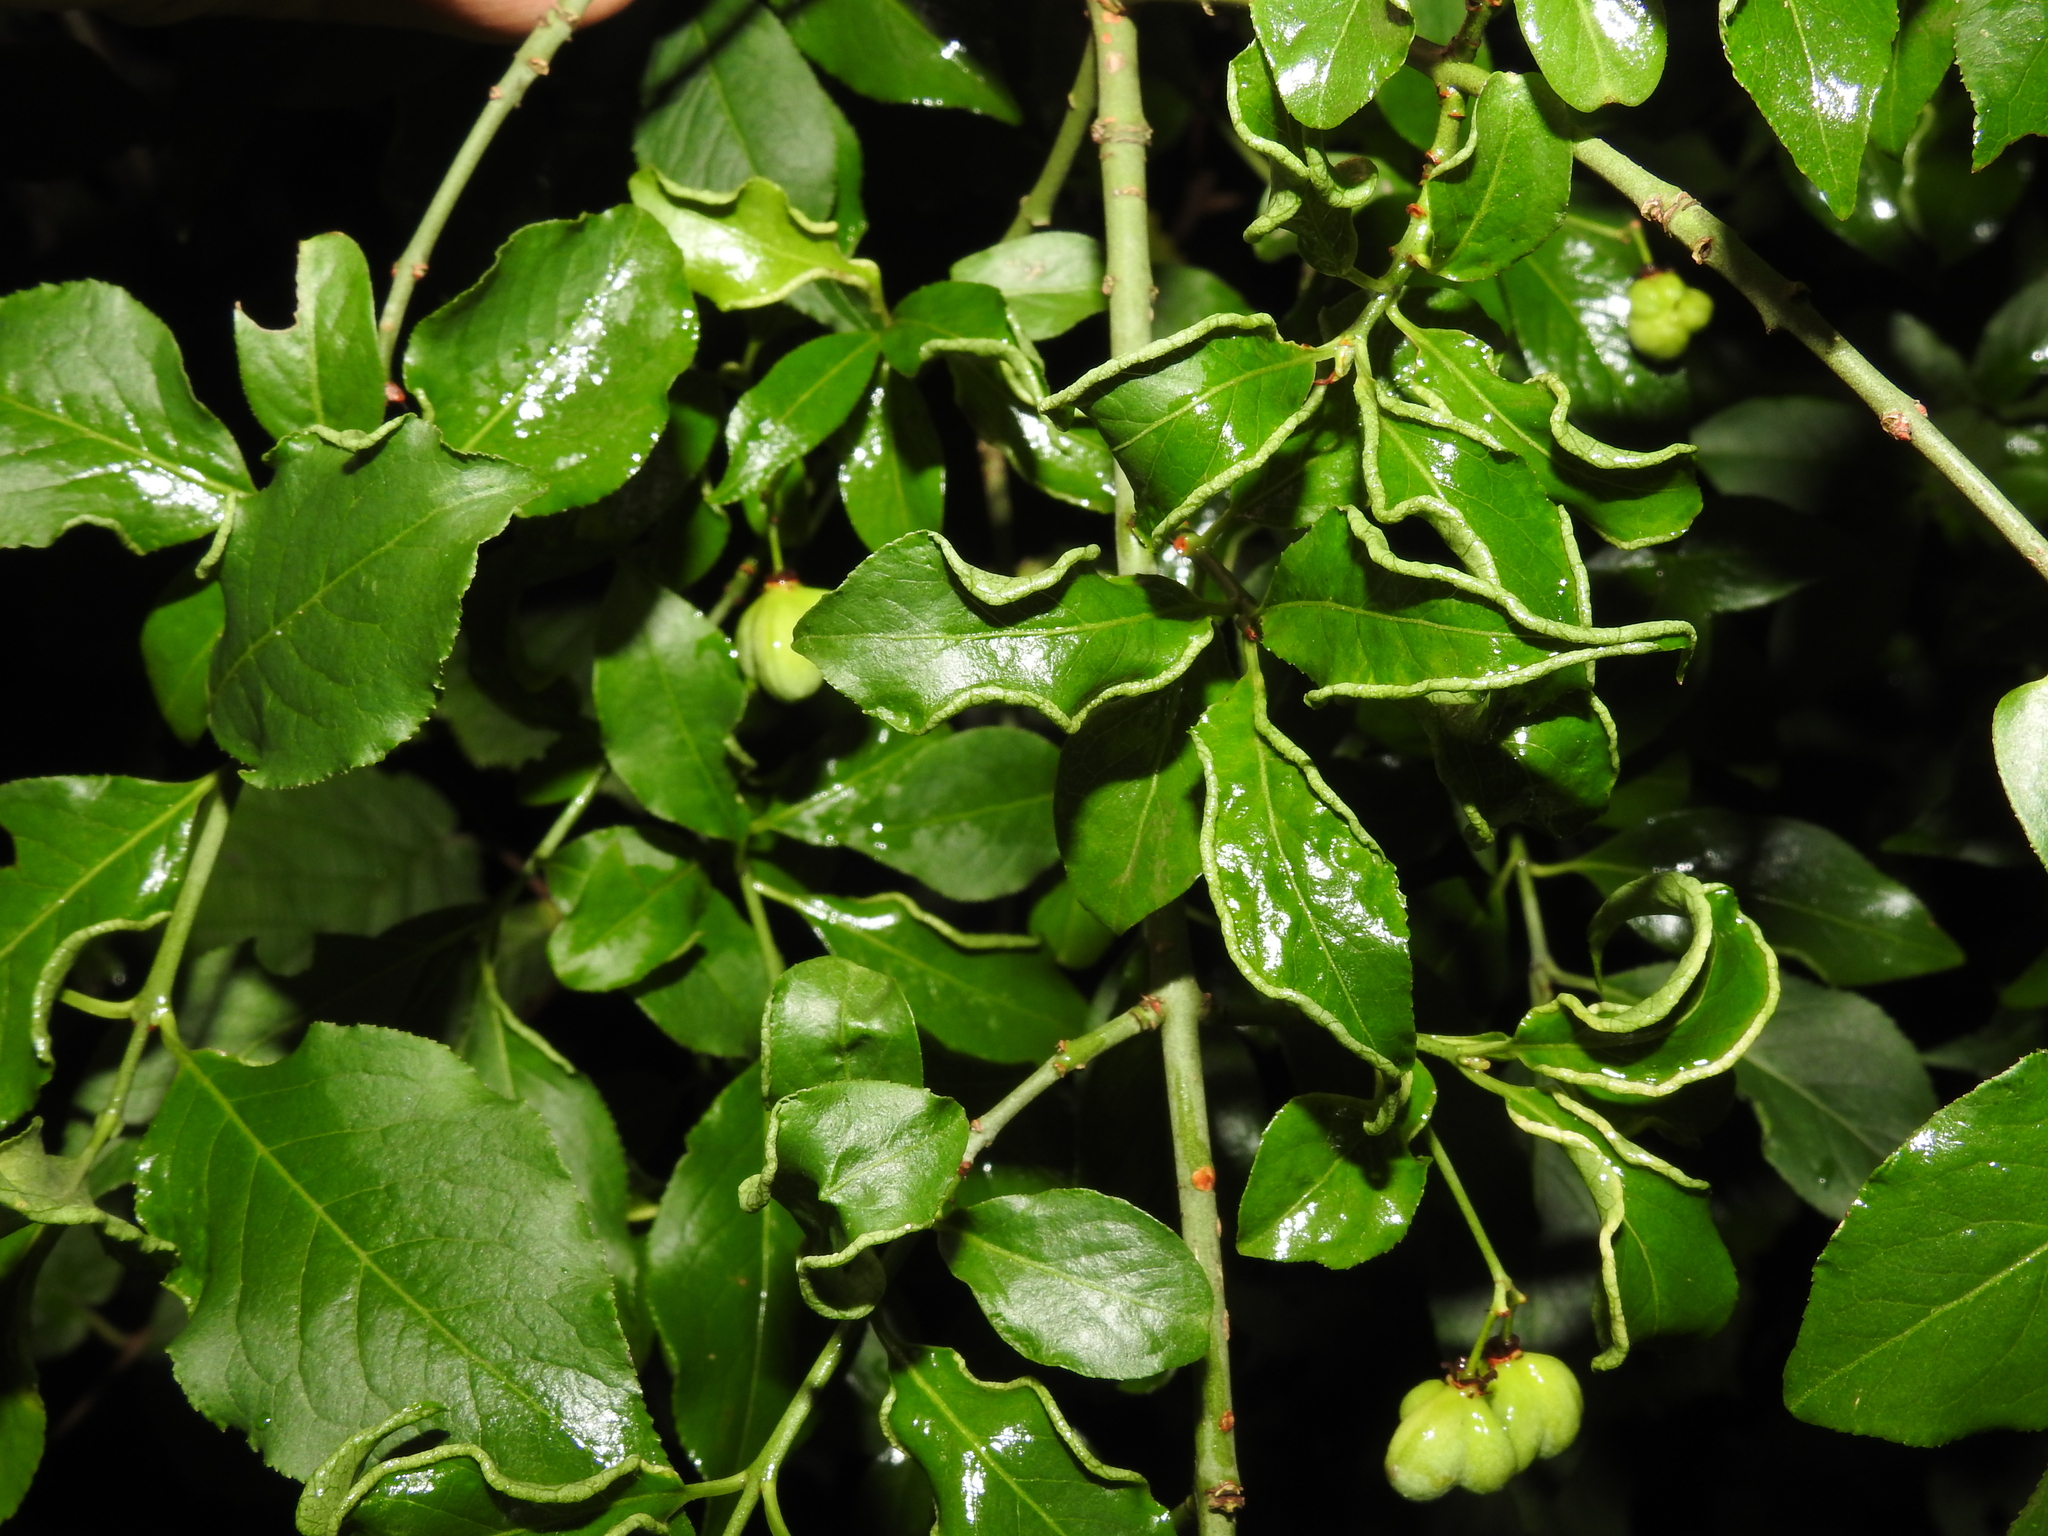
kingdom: Animalia
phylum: Arthropoda
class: Arachnida
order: Trombidiformes
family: Eriophyidae
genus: Stenacis
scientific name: Stenacis evonymi
